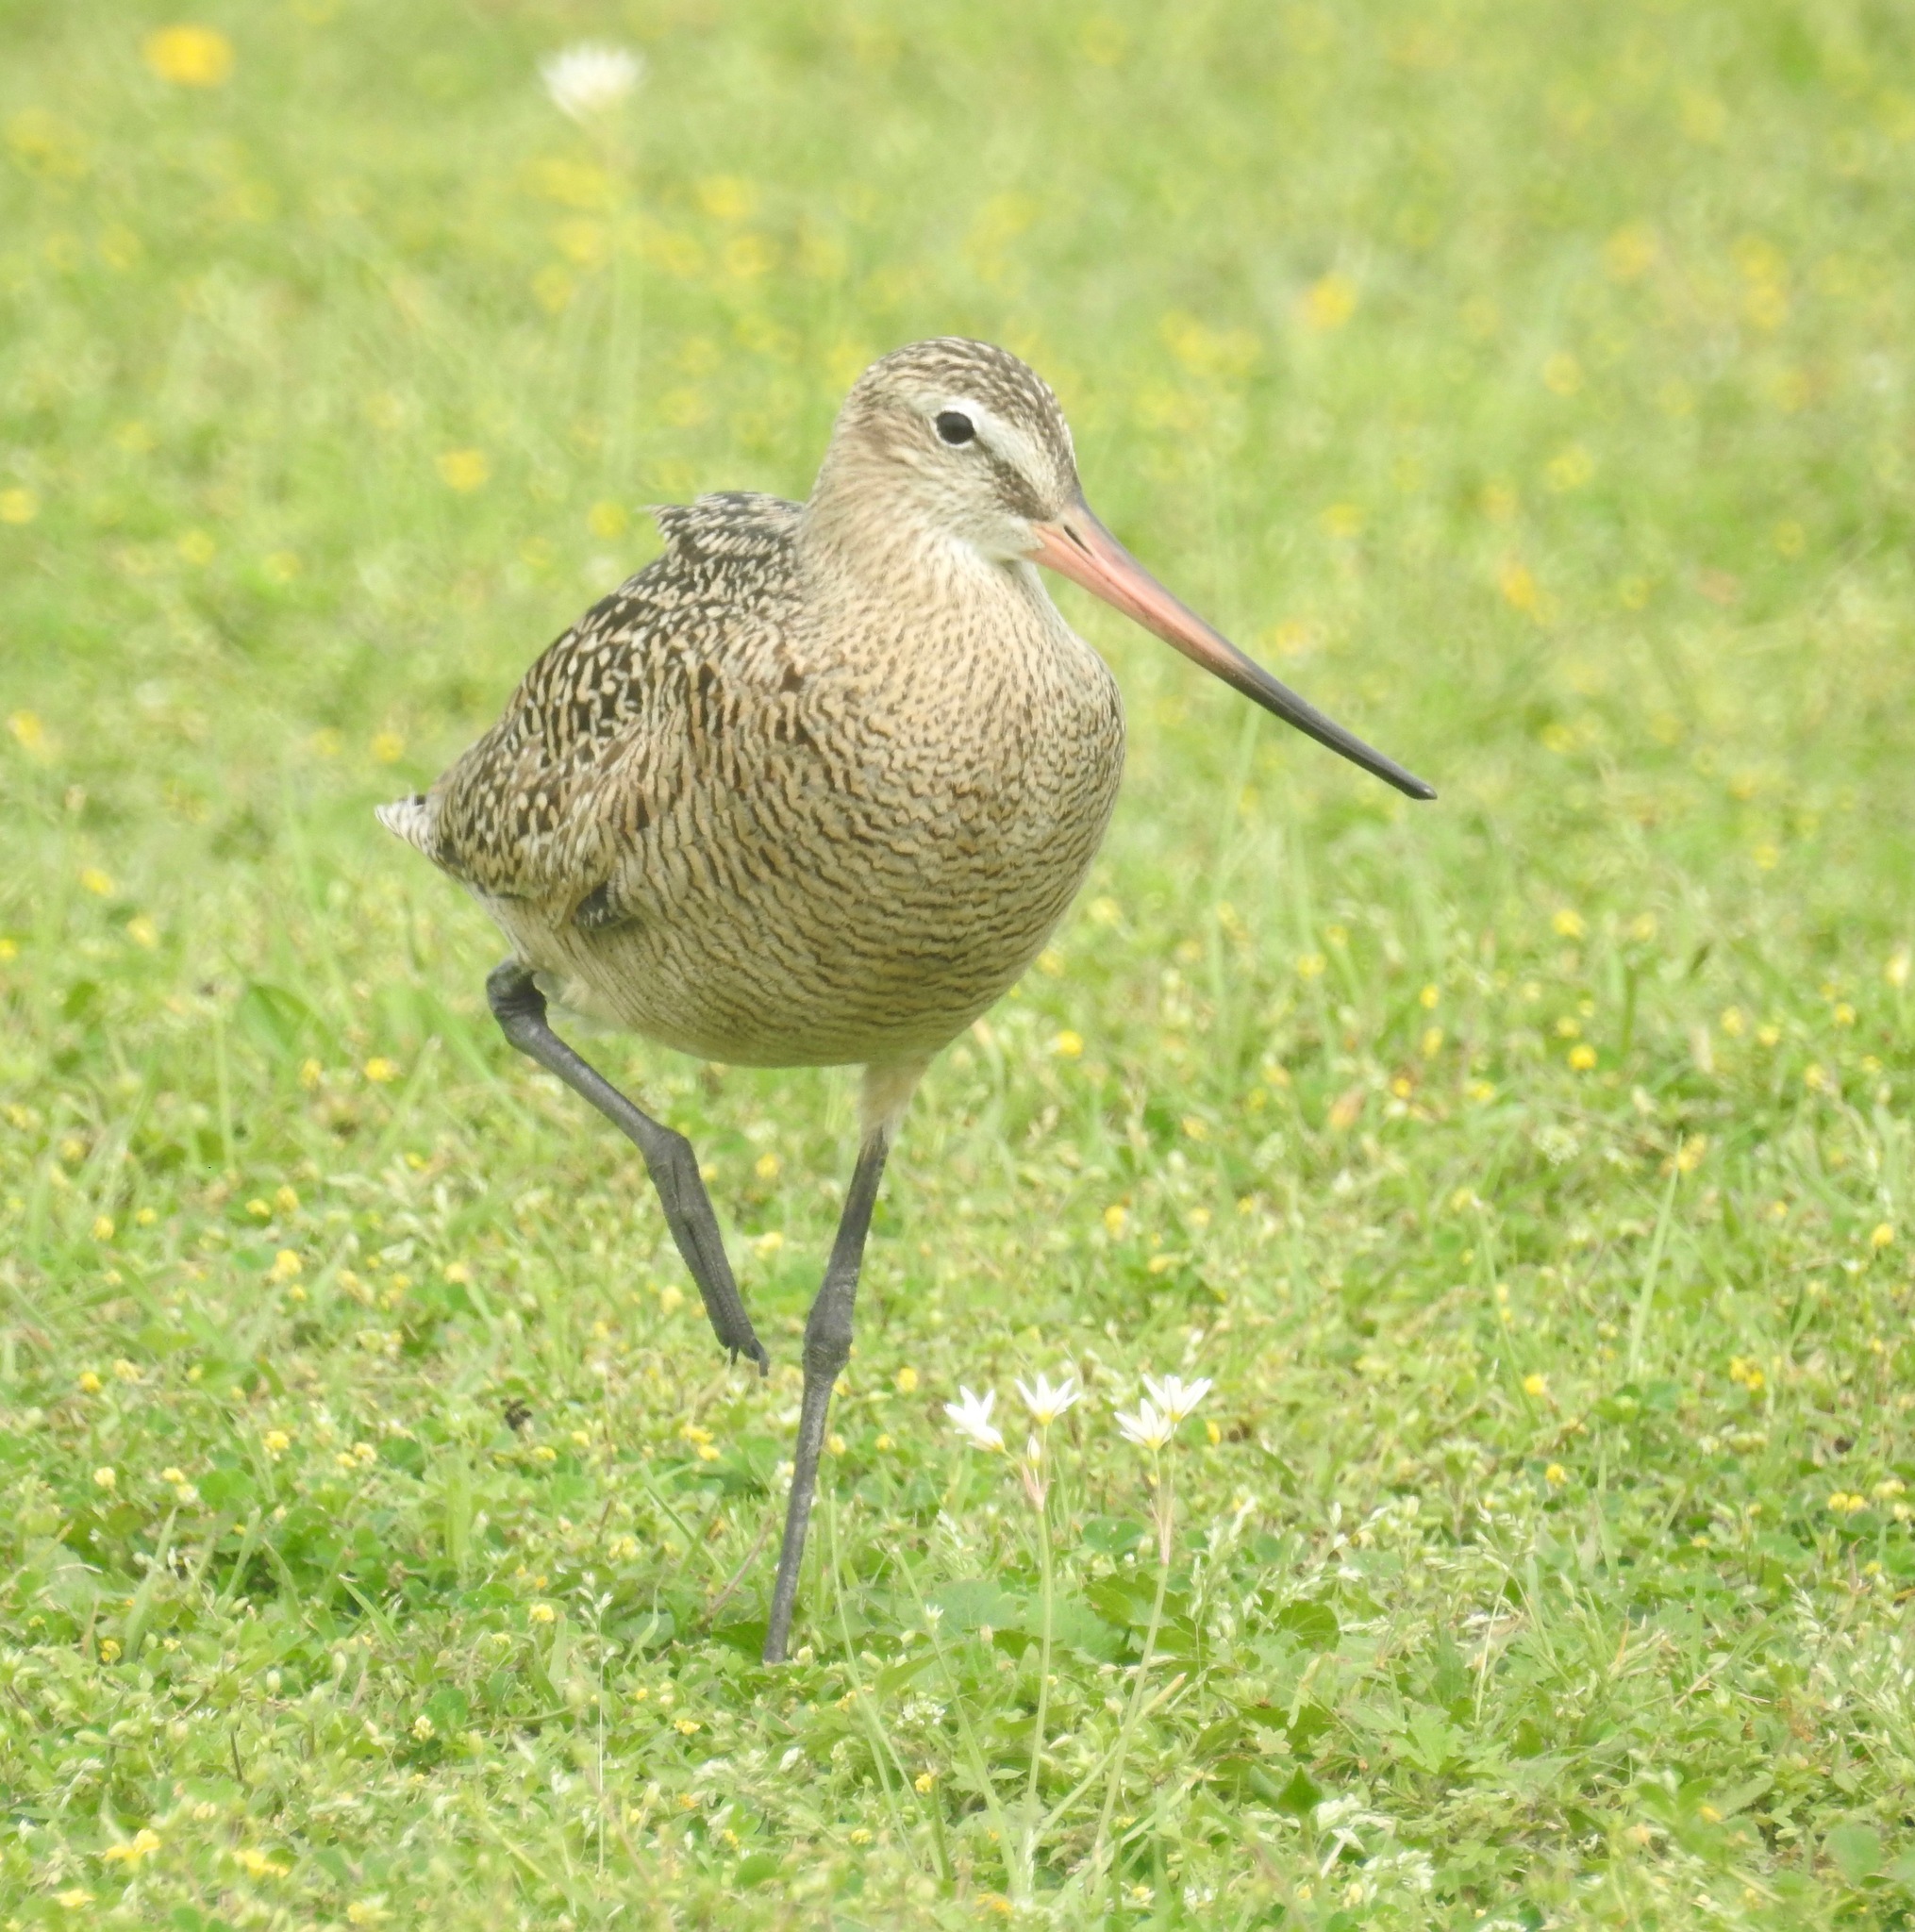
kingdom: Animalia
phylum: Chordata
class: Aves
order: Charadriiformes
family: Scolopacidae
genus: Limosa
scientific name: Limosa fedoa
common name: Marbled godwit
